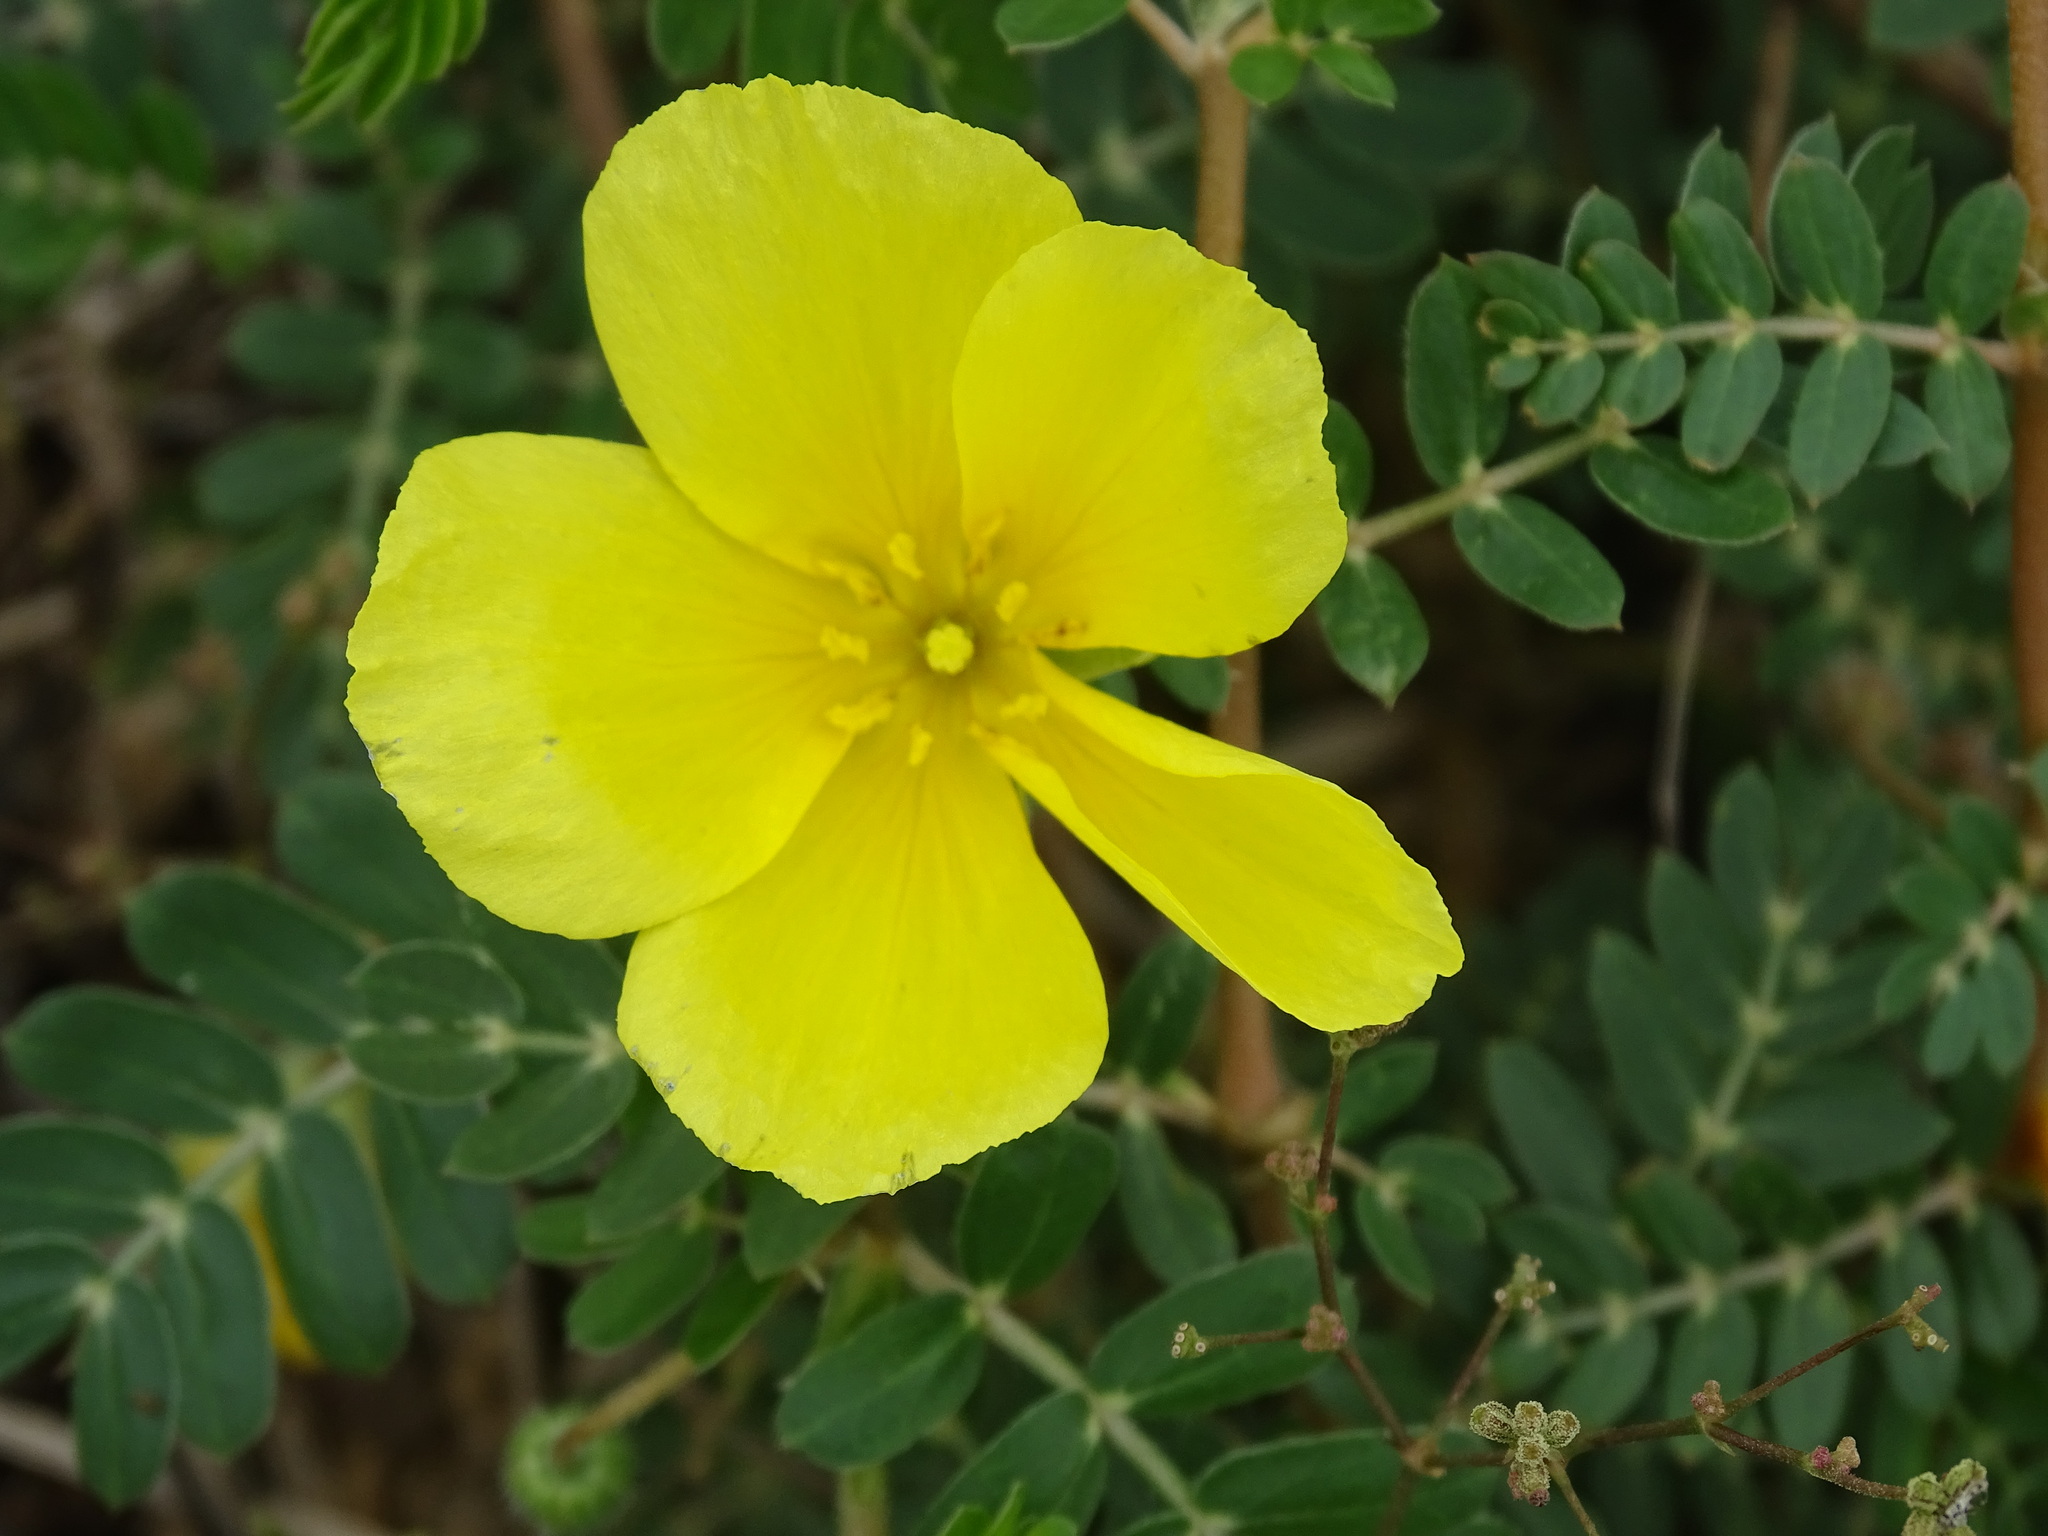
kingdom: Plantae
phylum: Tracheophyta
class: Magnoliopsida
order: Zygophyllales
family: Zygophyllaceae
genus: Tribulus
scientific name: Tribulus cistoides
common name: Jamaican feverplant
